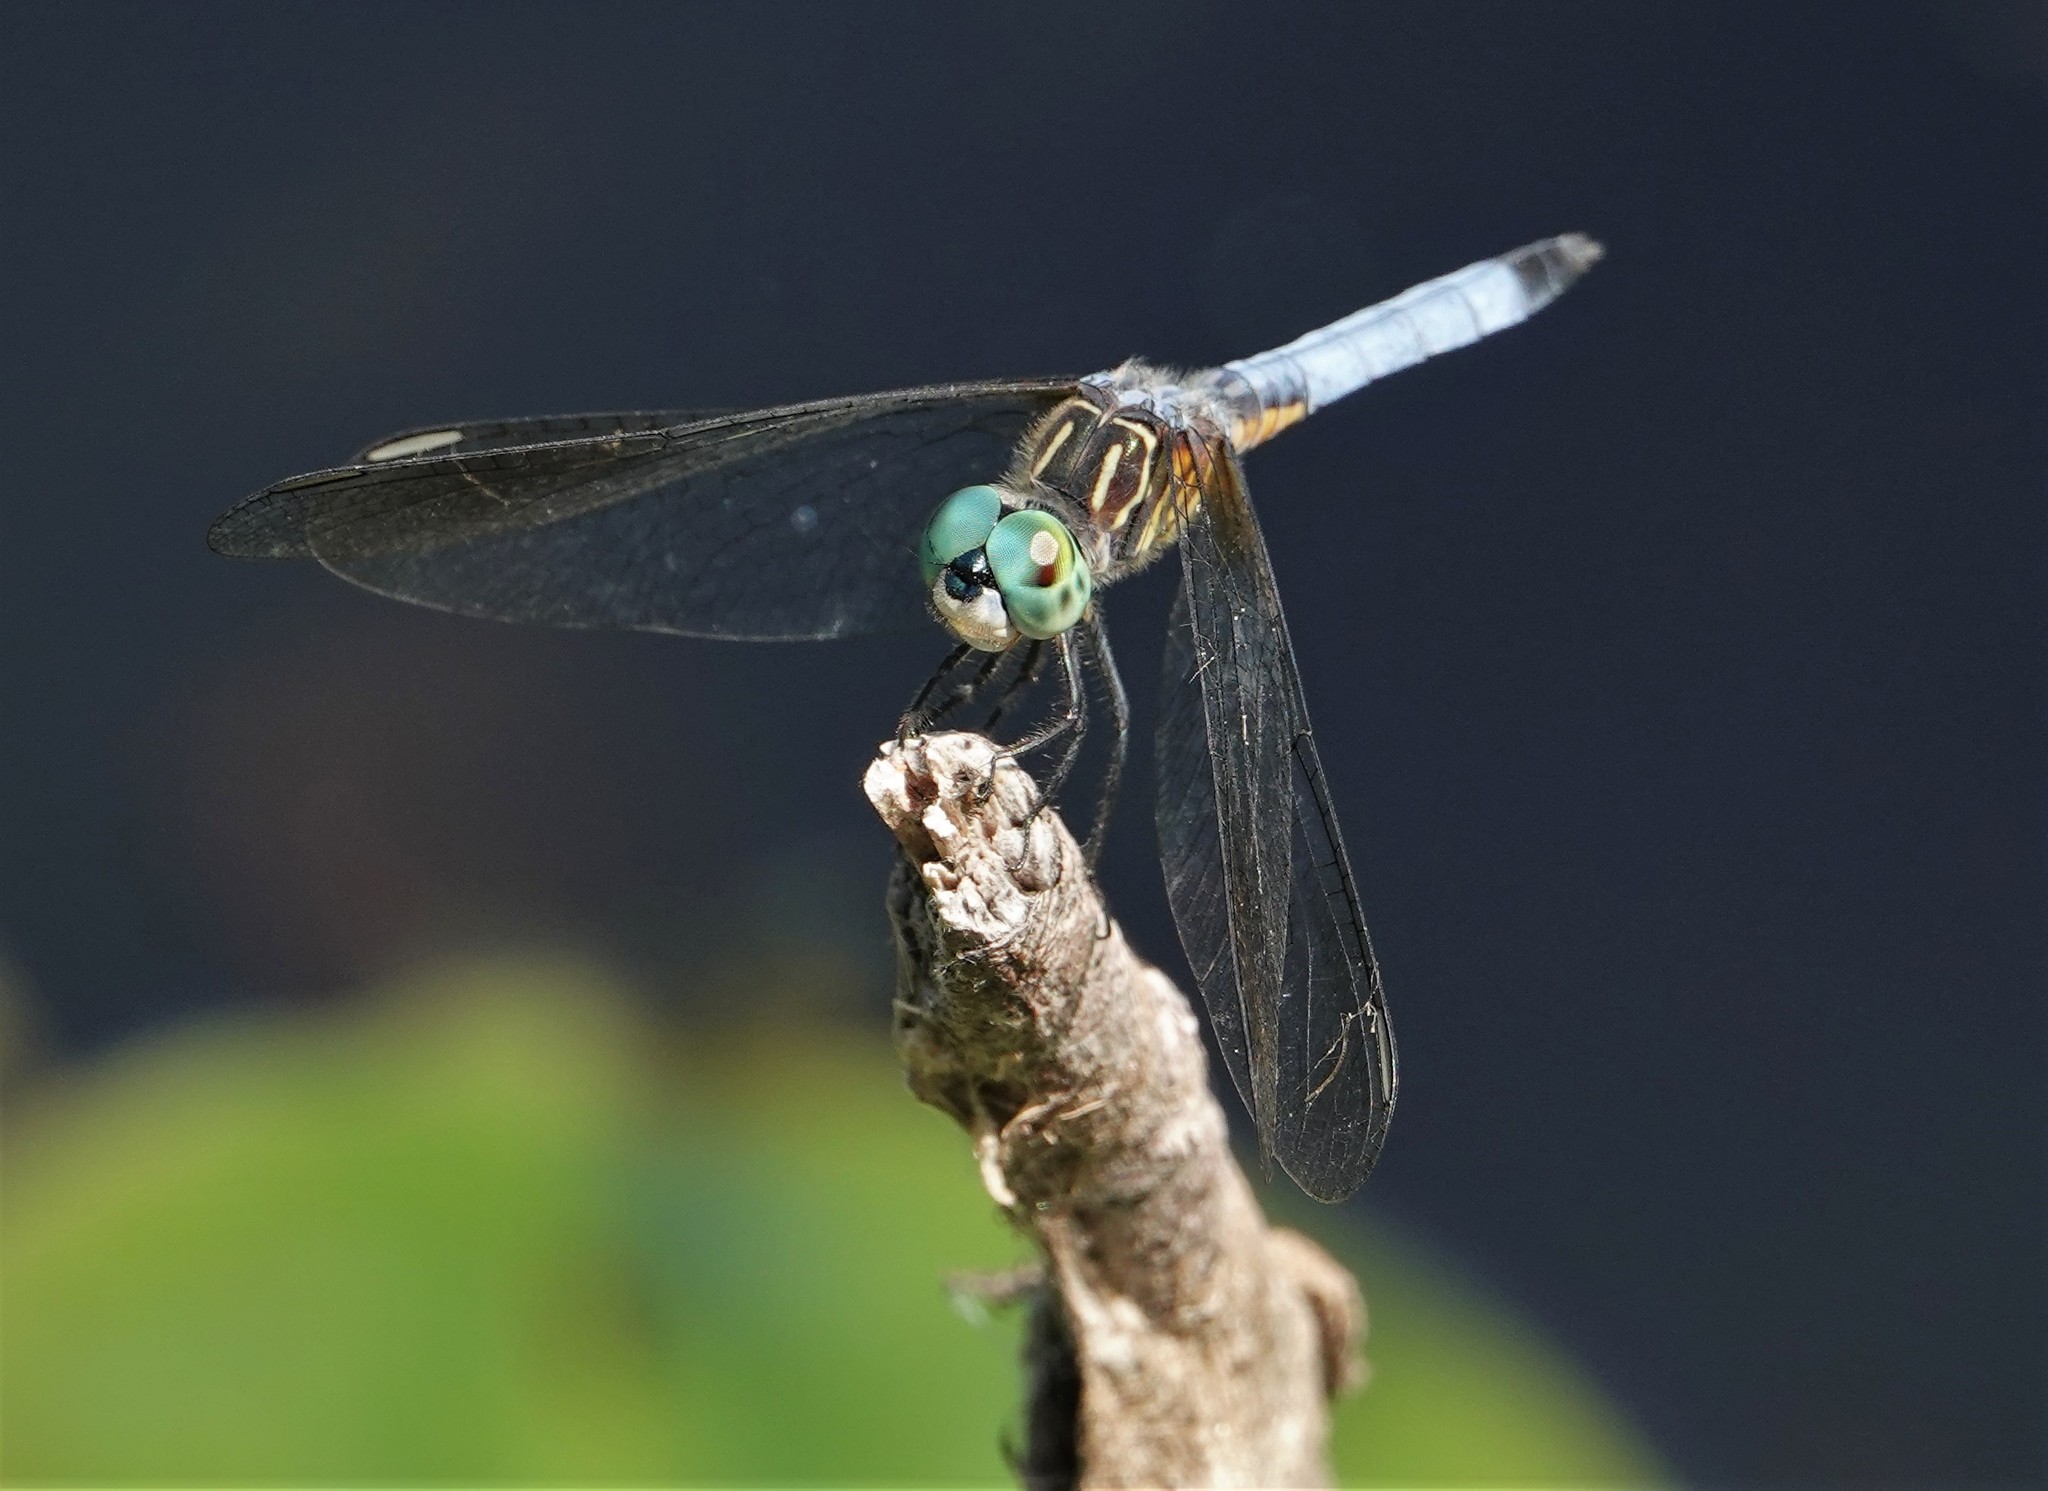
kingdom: Animalia
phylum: Arthropoda
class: Insecta
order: Odonata
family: Libellulidae
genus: Pachydiplax
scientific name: Pachydiplax longipennis
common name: Blue dasher
